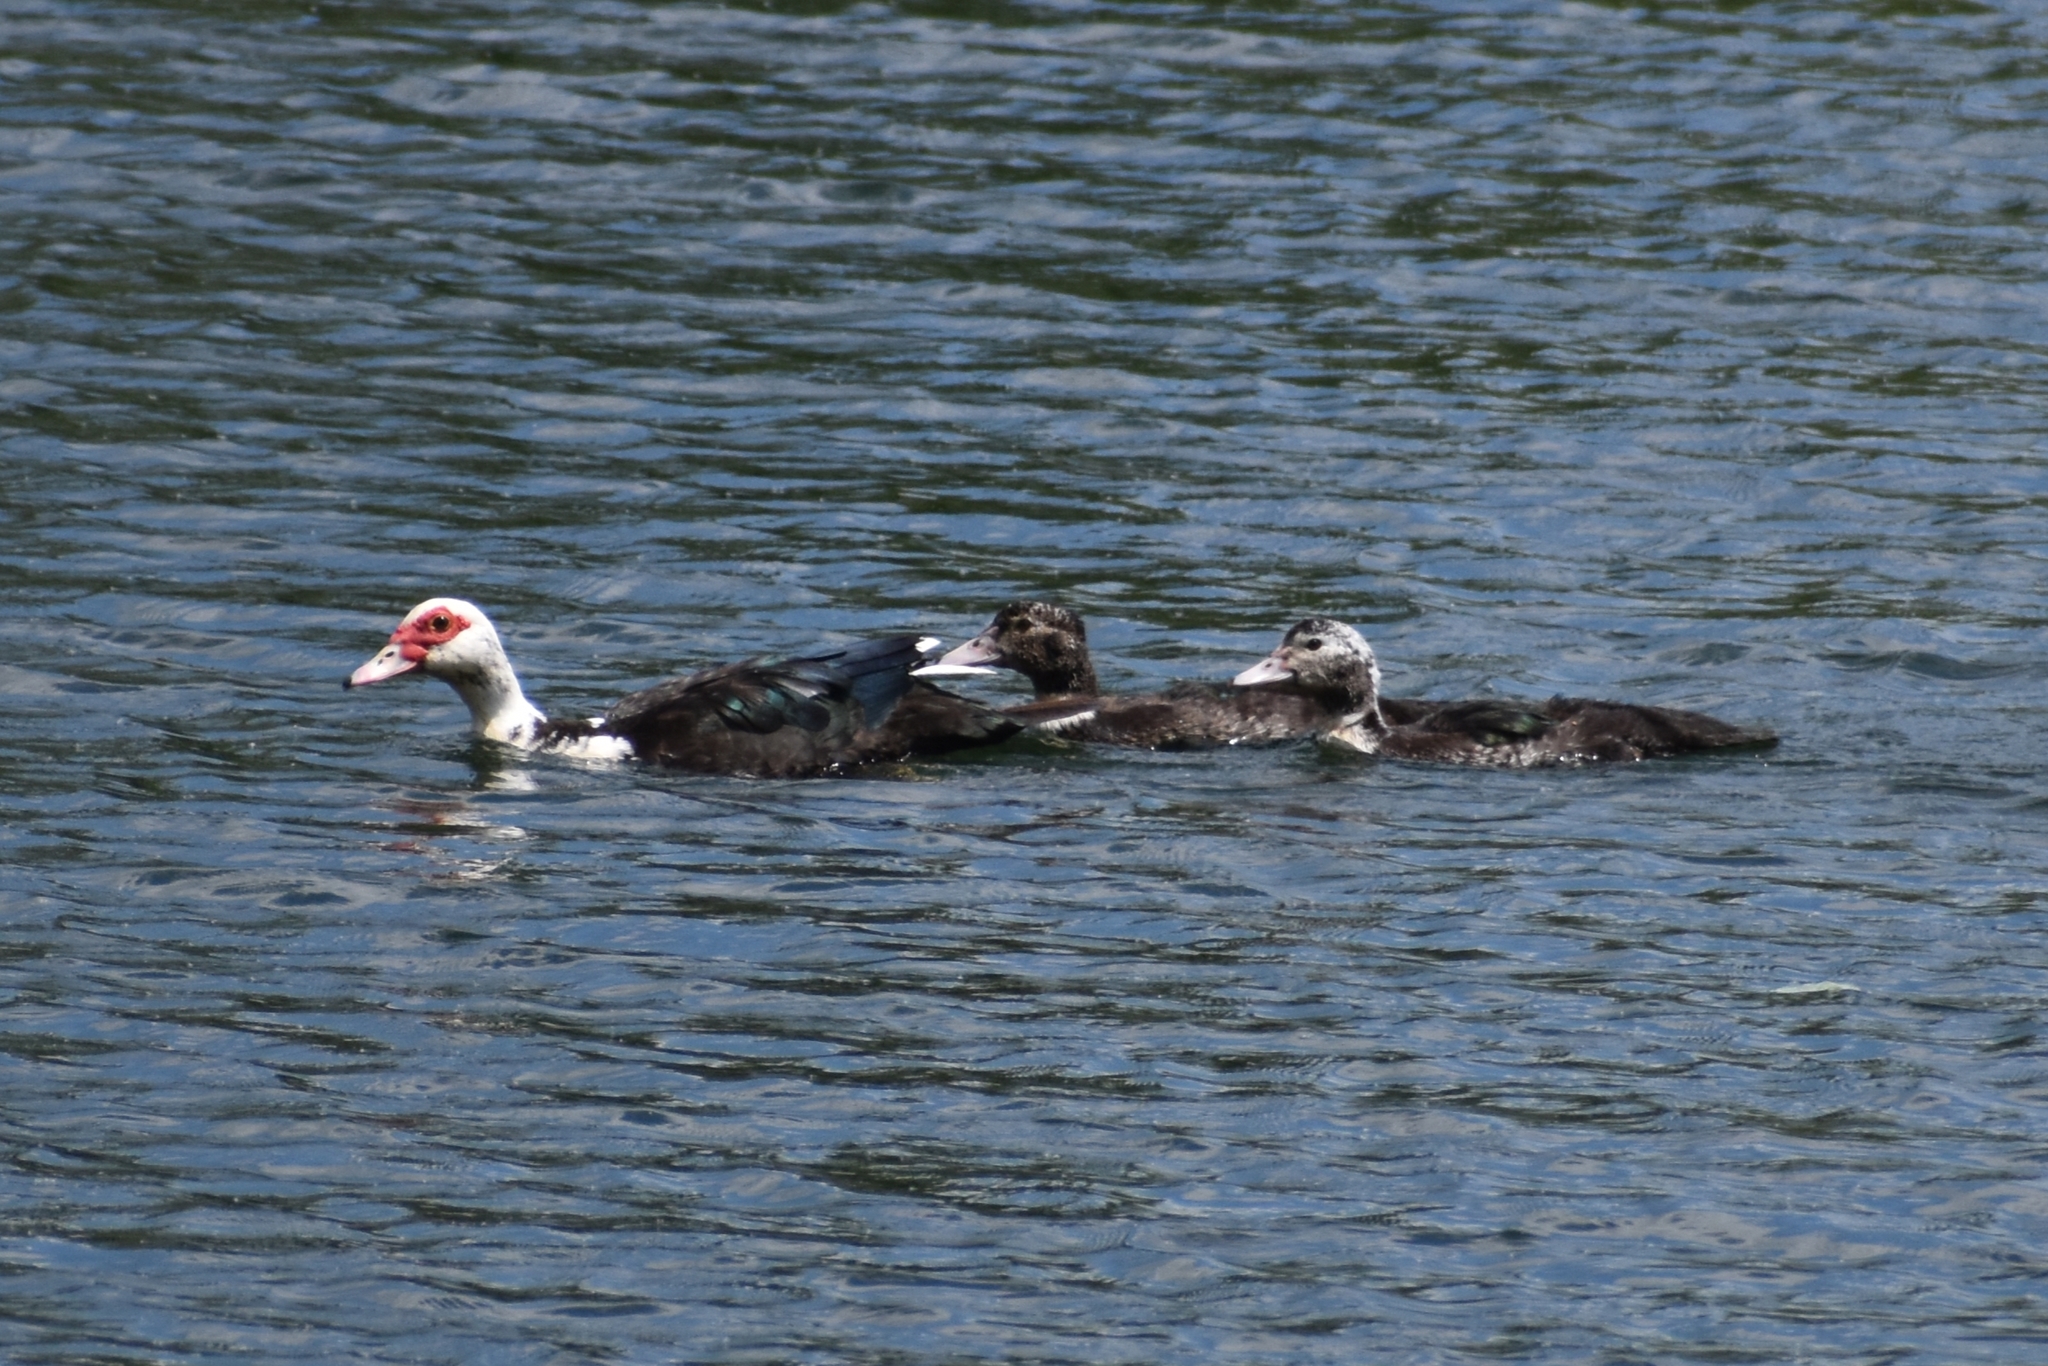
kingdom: Animalia
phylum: Chordata
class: Aves
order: Anseriformes
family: Anatidae
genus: Cairina
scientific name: Cairina moschata
